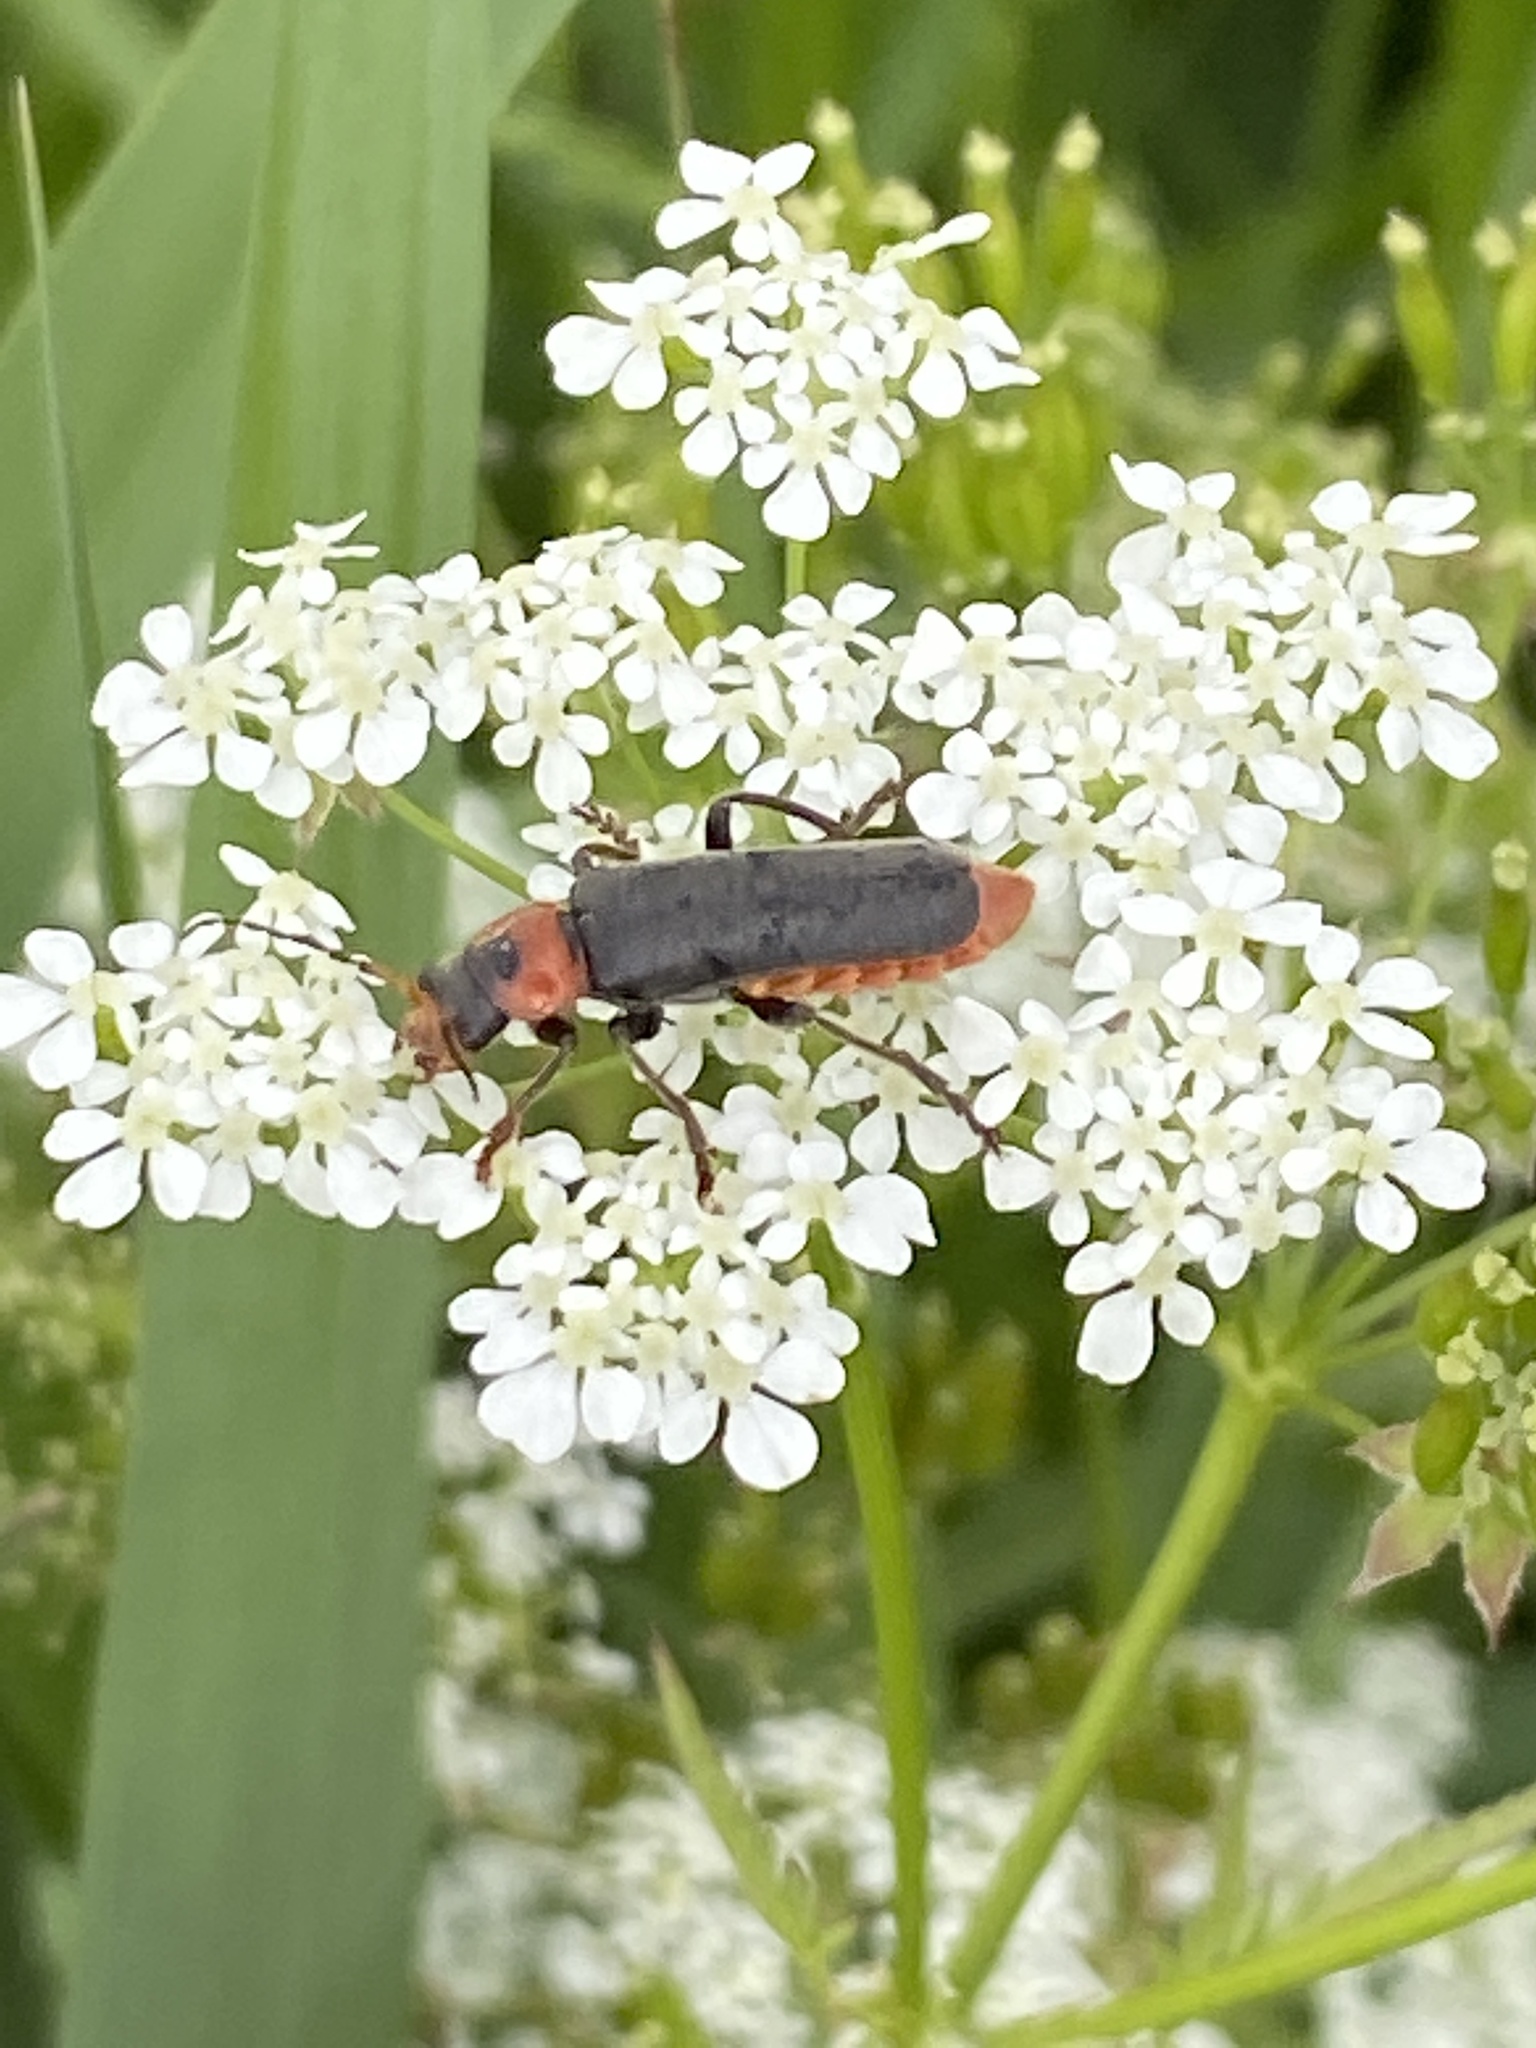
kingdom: Animalia
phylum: Arthropoda
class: Insecta
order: Coleoptera
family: Cantharidae
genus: Cantharis
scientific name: Cantharis fusca
